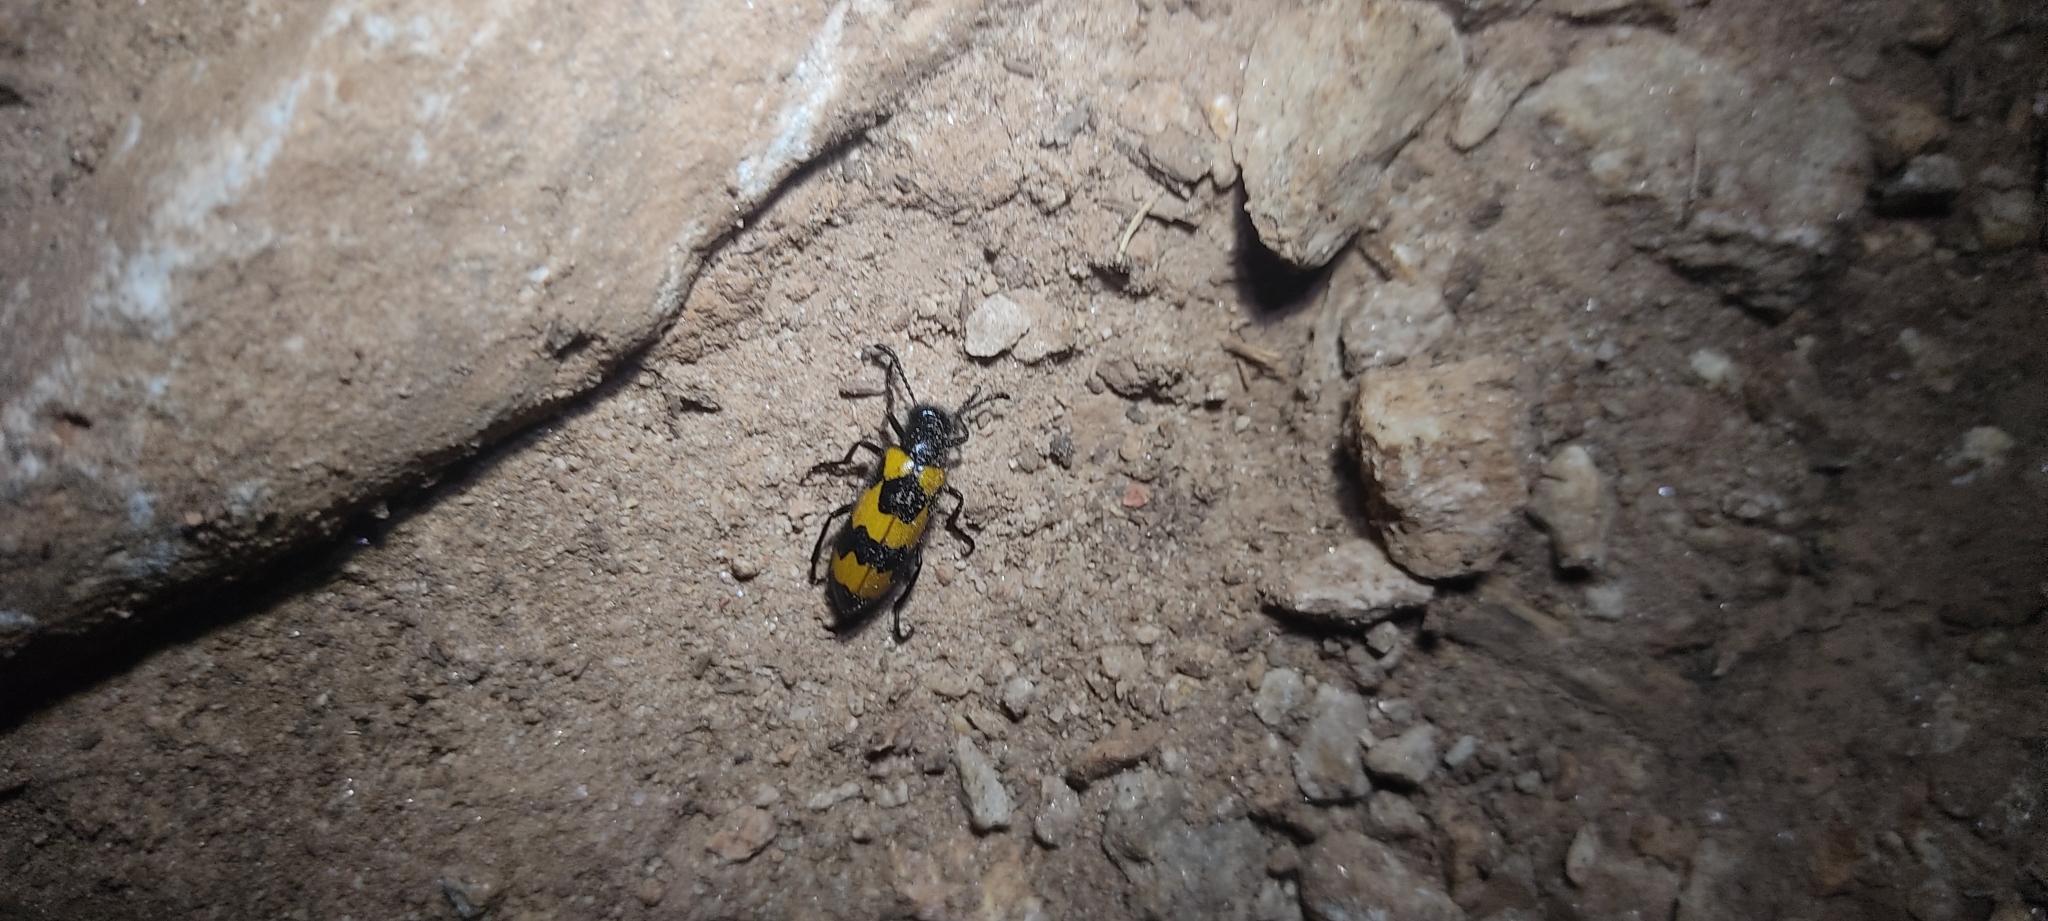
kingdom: Animalia
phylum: Arthropoda
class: Insecta
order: Coleoptera
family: Meloidae
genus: Mylabris
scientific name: Mylabris variabilis
